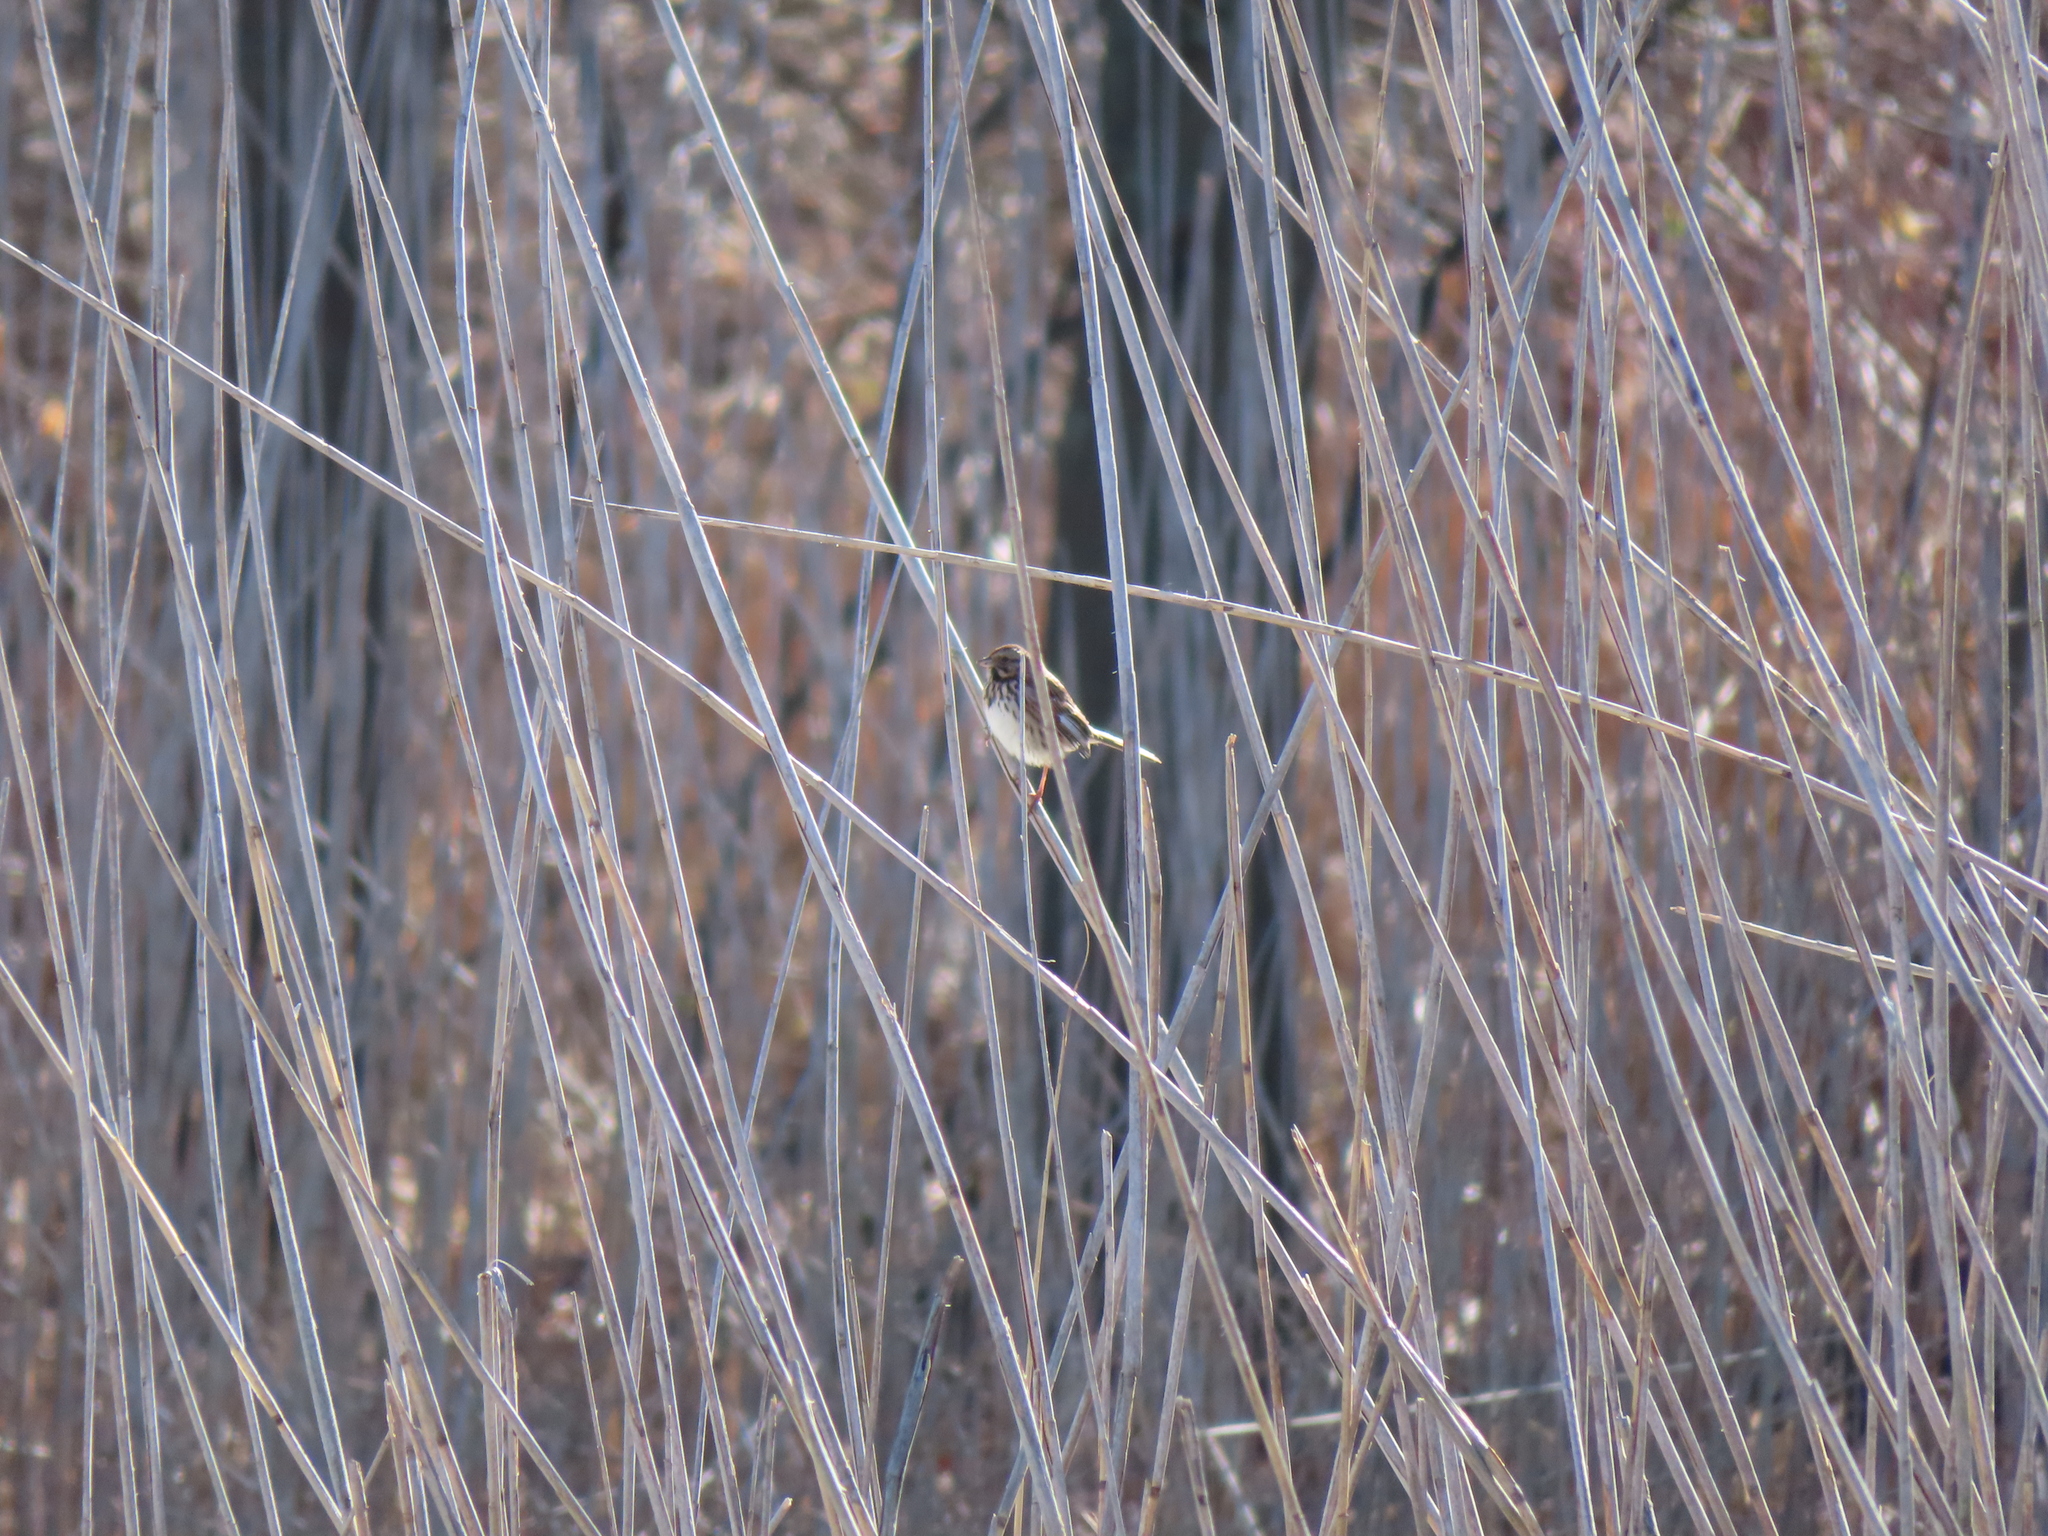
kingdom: Animalia
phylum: Chordata
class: Aves
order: Passeriformes
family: Passerellidae
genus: Melospiza
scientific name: Melospiza melodia
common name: Song sparrow
